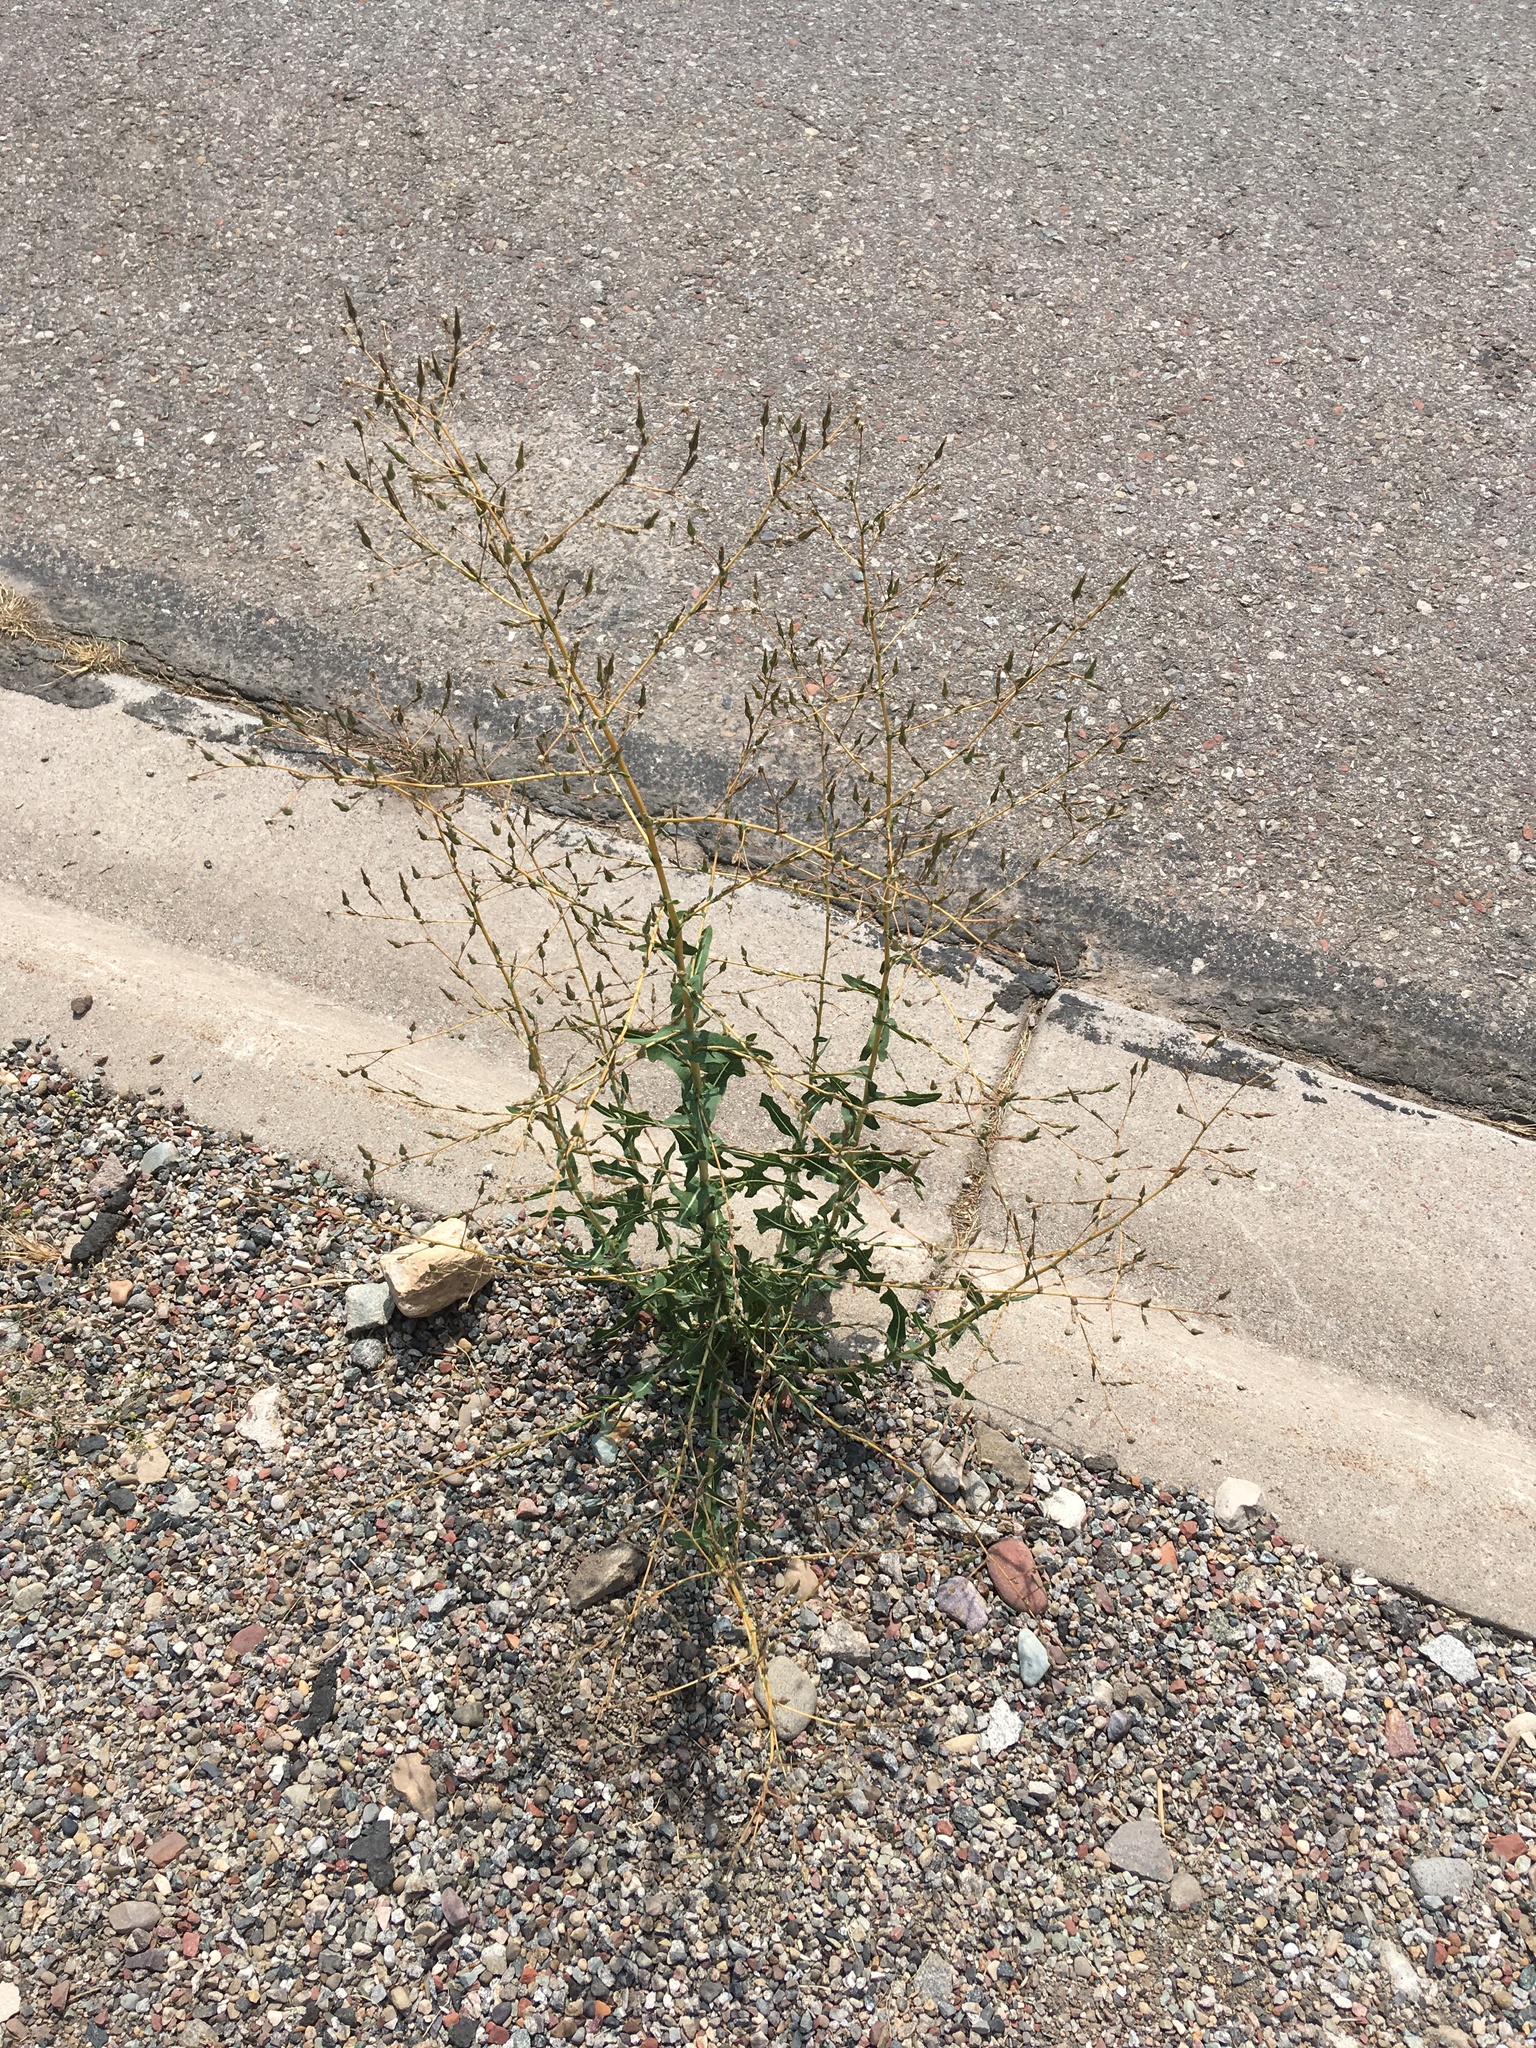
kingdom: Plantae
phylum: Tracheophyta
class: Magnoliopsida
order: Asterales
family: Asteraceae
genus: Lactuca
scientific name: Lactuca serriola
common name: Prickly lettuce
